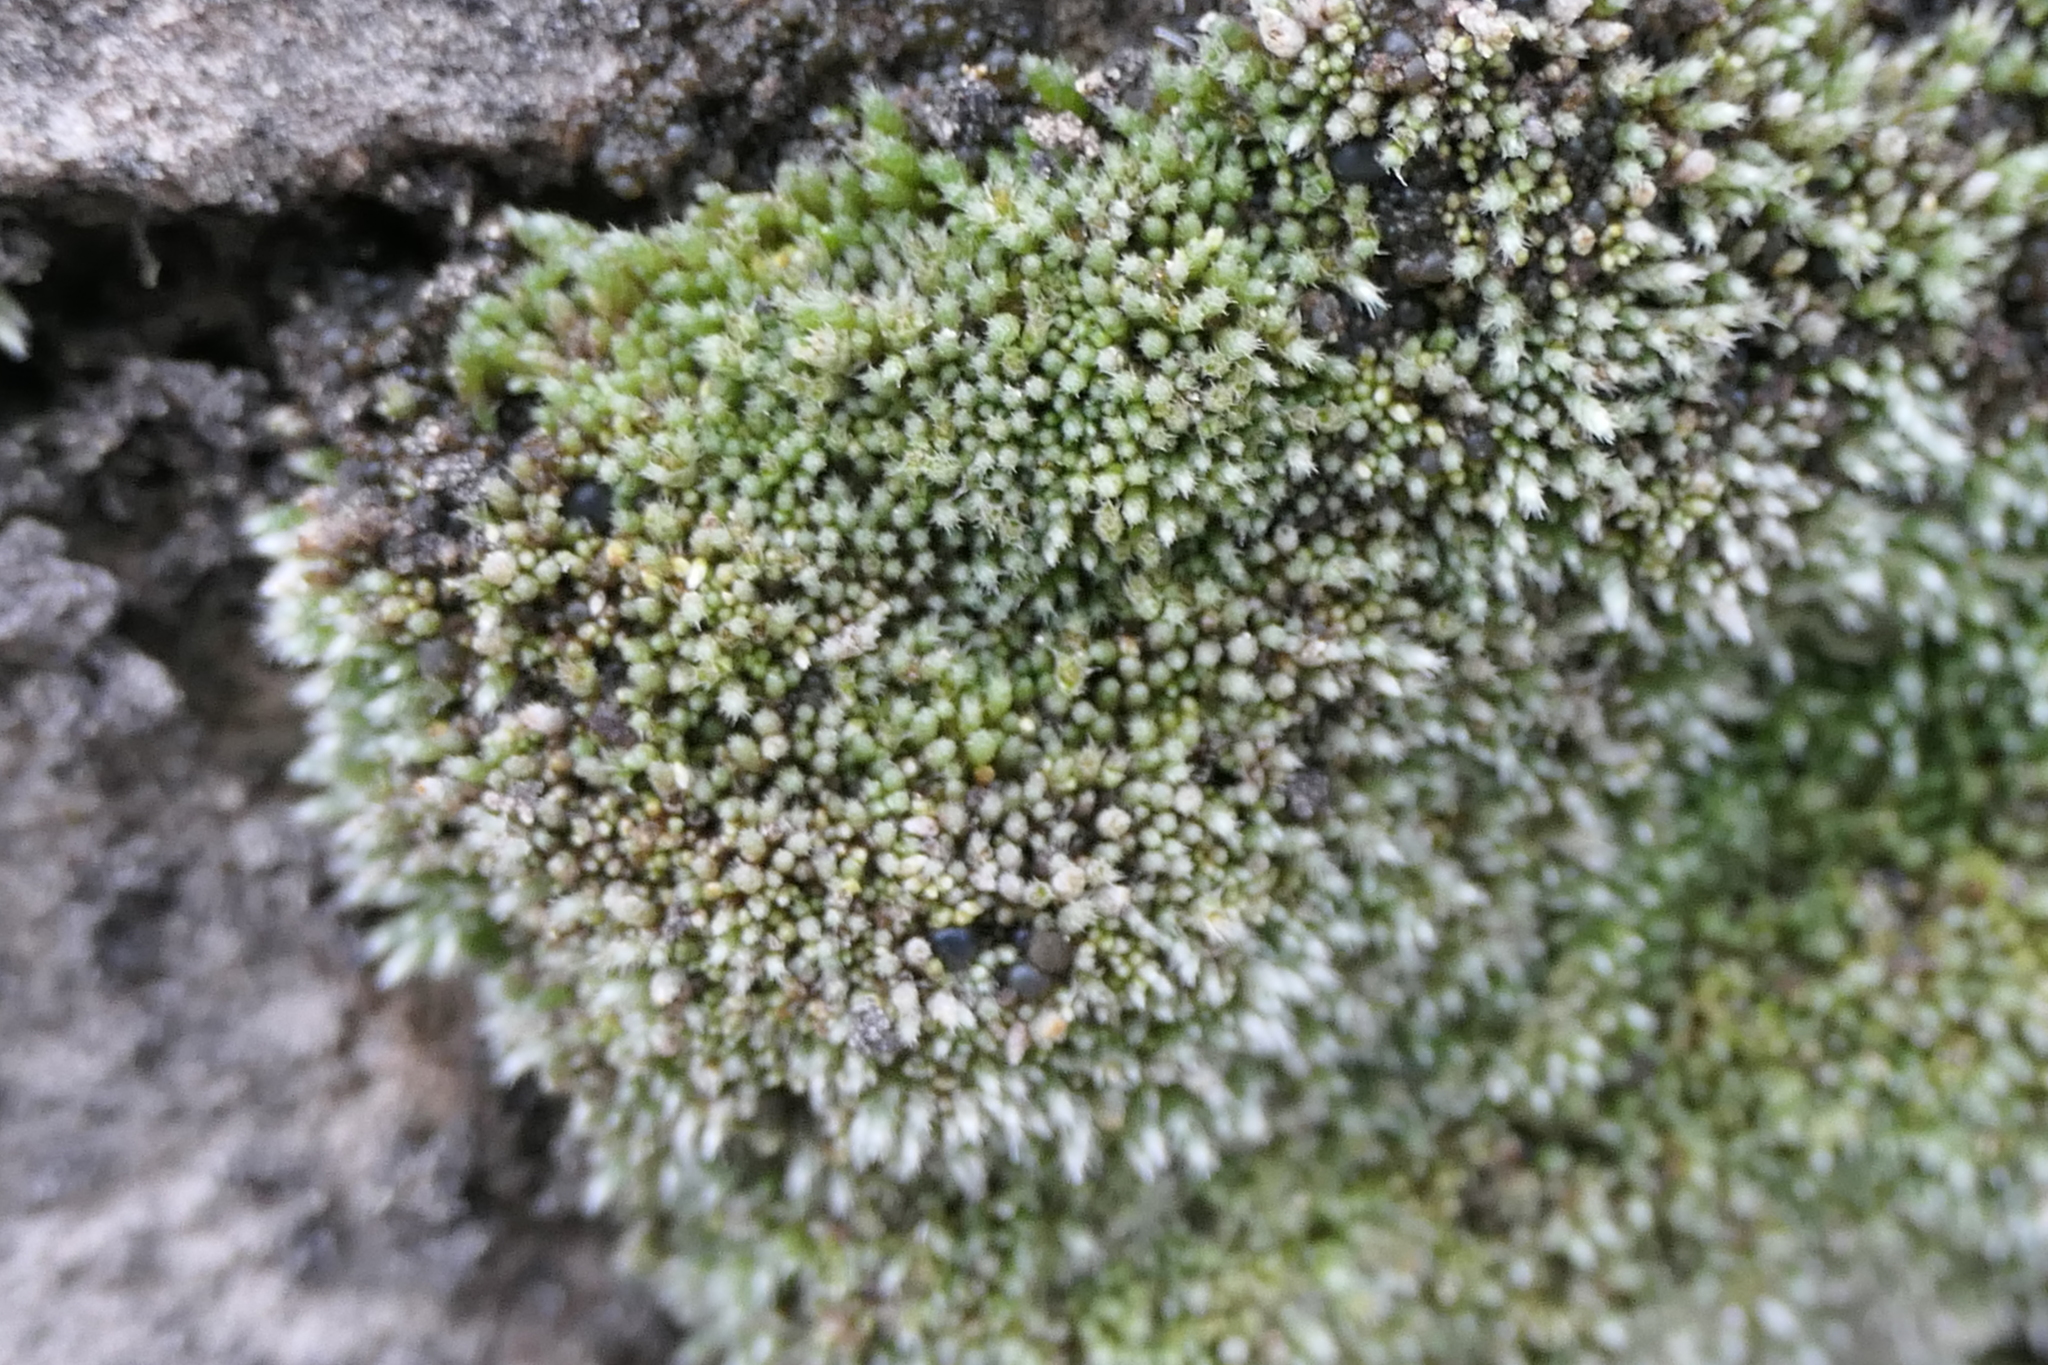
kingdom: Plantae
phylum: Bryophyta
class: Bryopsida
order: Bryales
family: Bryaceae
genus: Bryum
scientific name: Bryum argenteum
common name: Silver-moss
